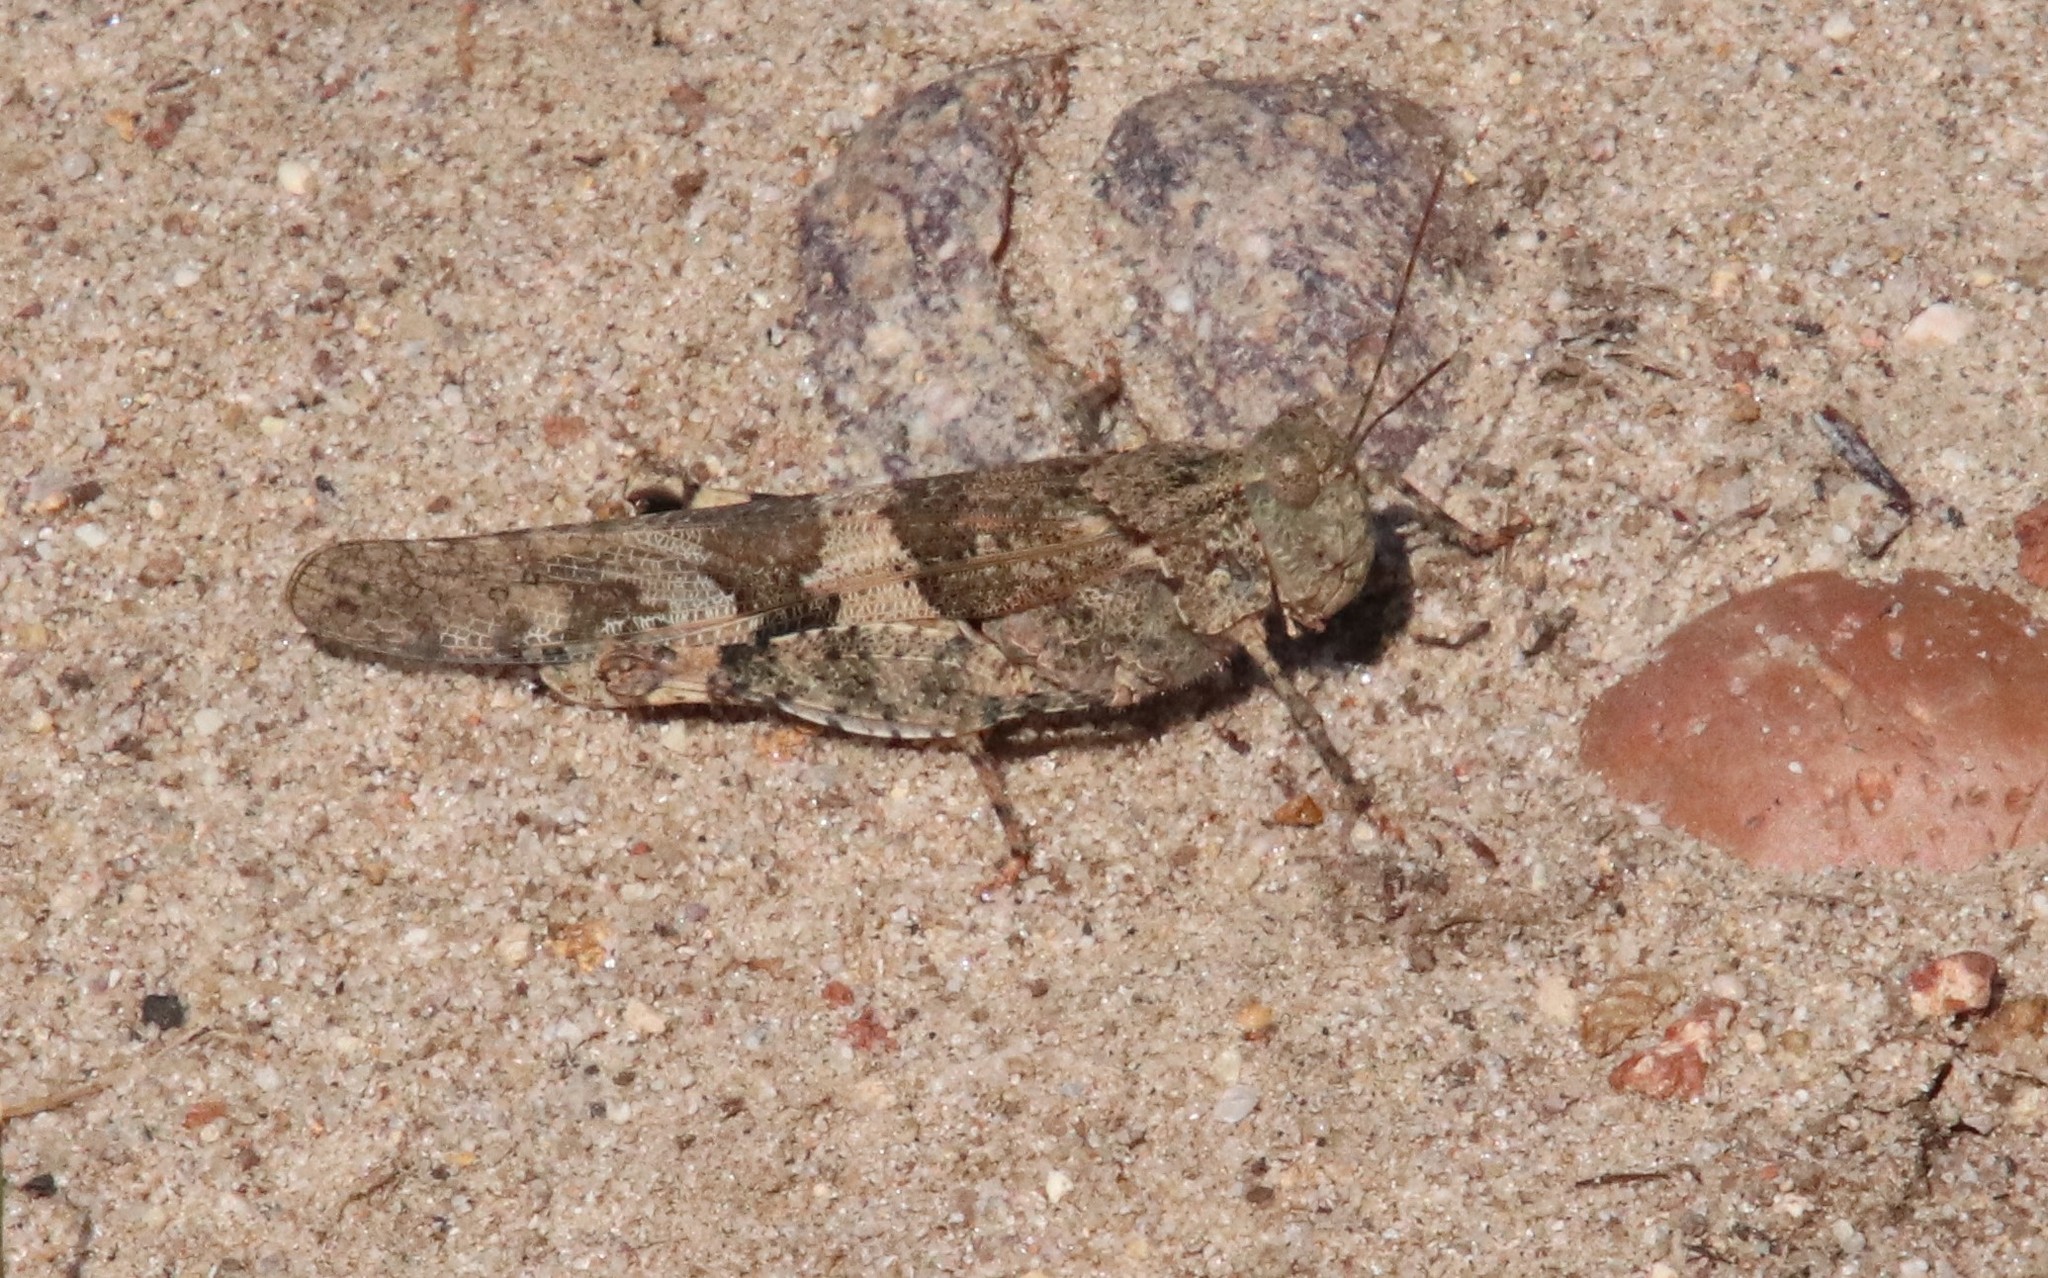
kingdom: Animalia
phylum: Arthropoda
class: Insecta
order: Orthoptera
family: Acrididae
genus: Trimerotropis
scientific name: Trimerotropis pallidipennis
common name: Pallid-winged grasshopper
